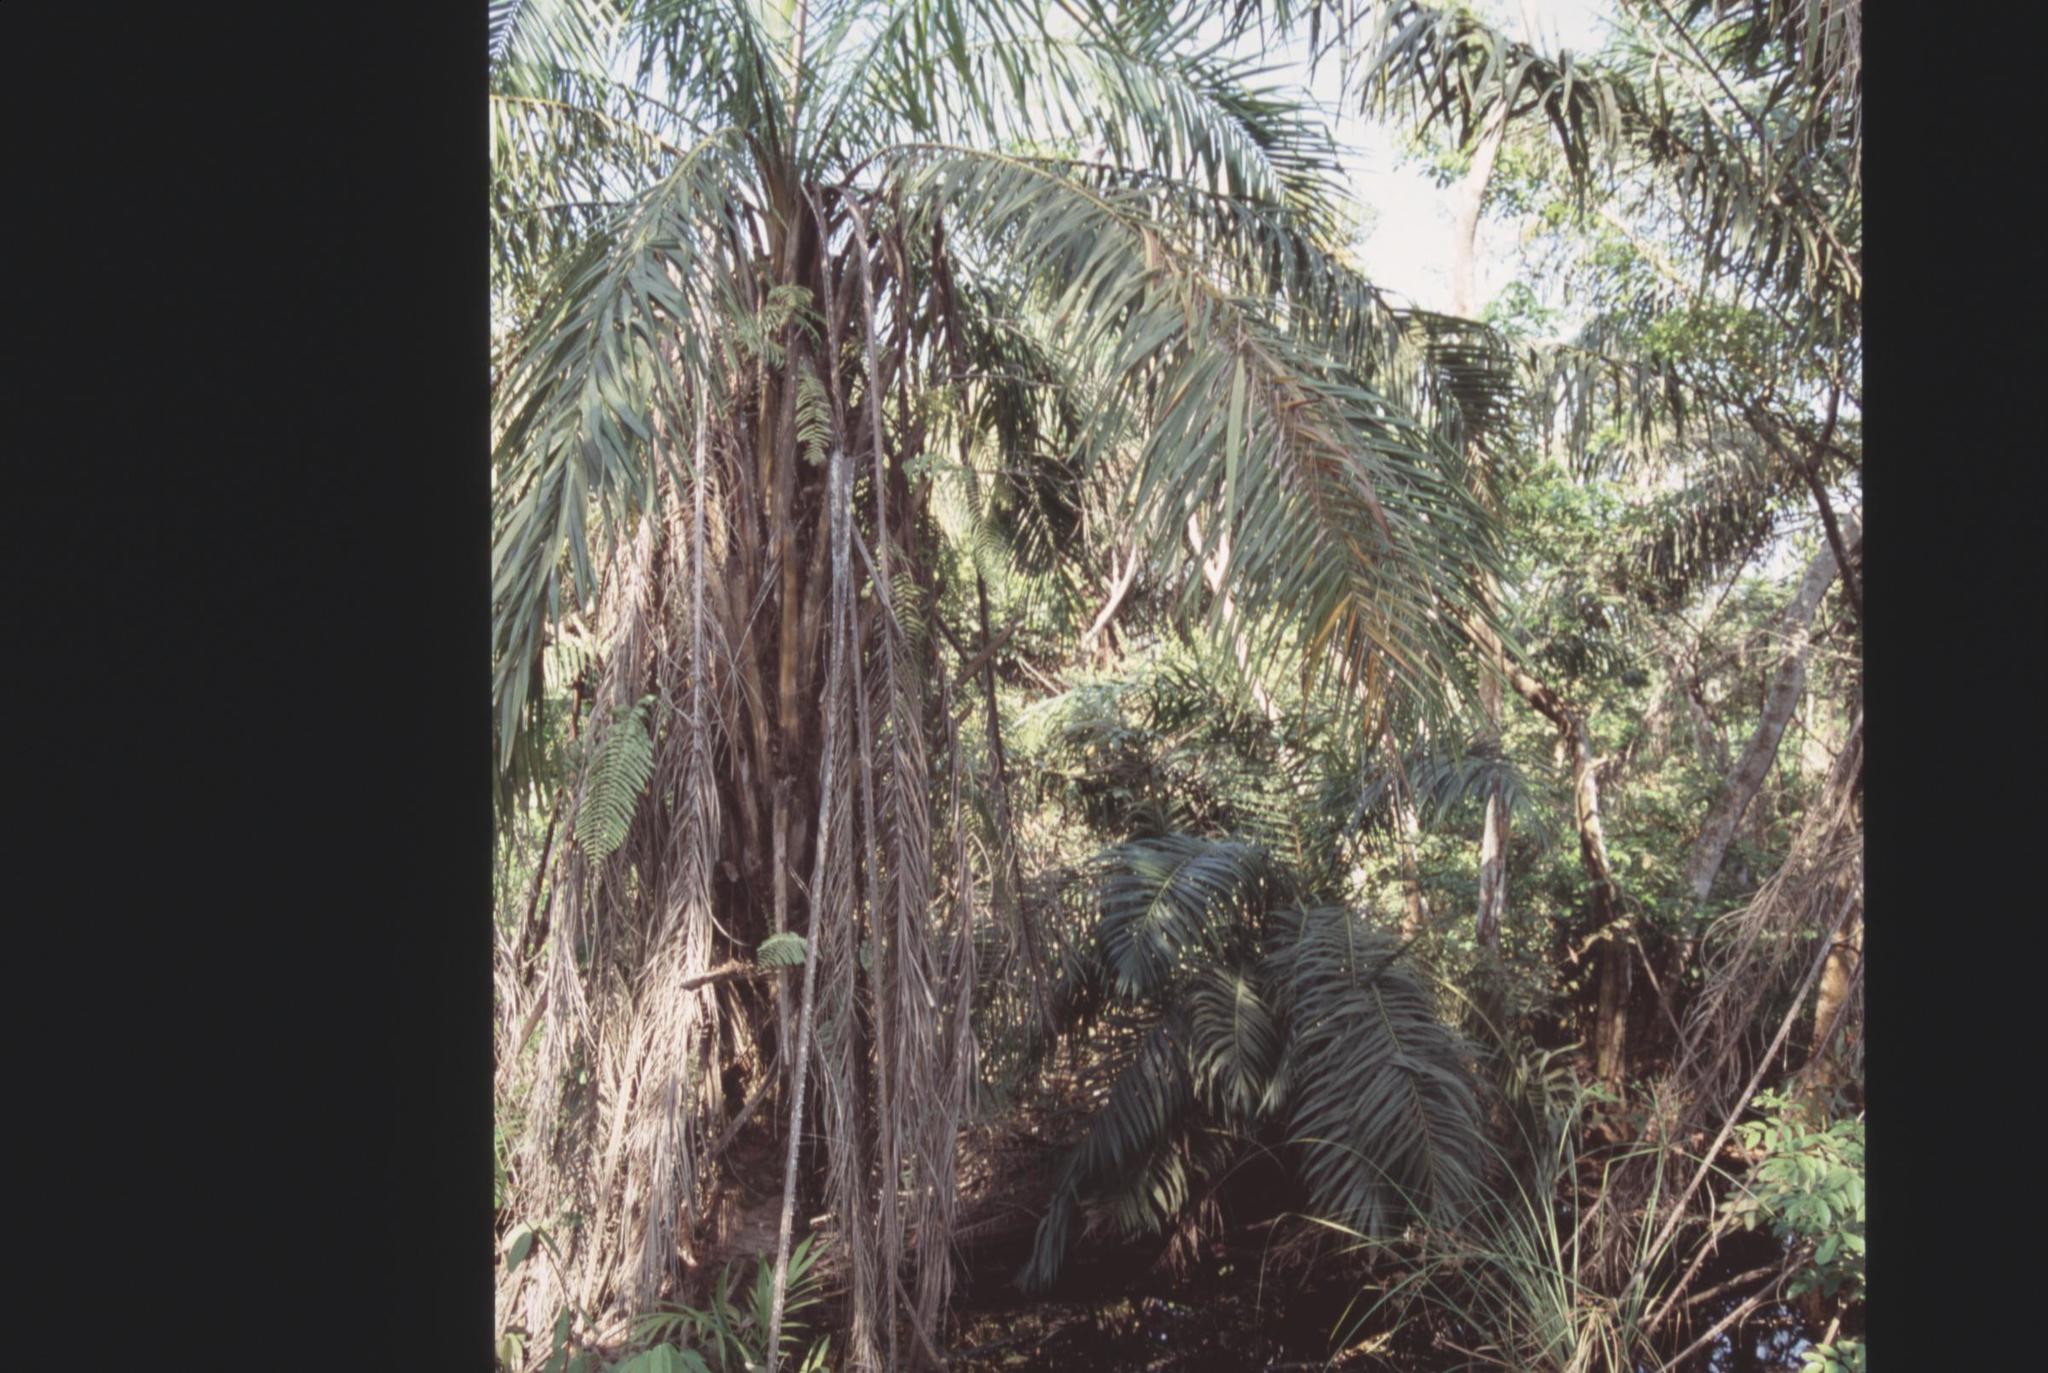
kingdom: Plantae
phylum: Tracheophyta
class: Liliopsida
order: Arecales
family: Arecaceae
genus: Elaeis
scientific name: Elaeis guineensis
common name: Oil palm
